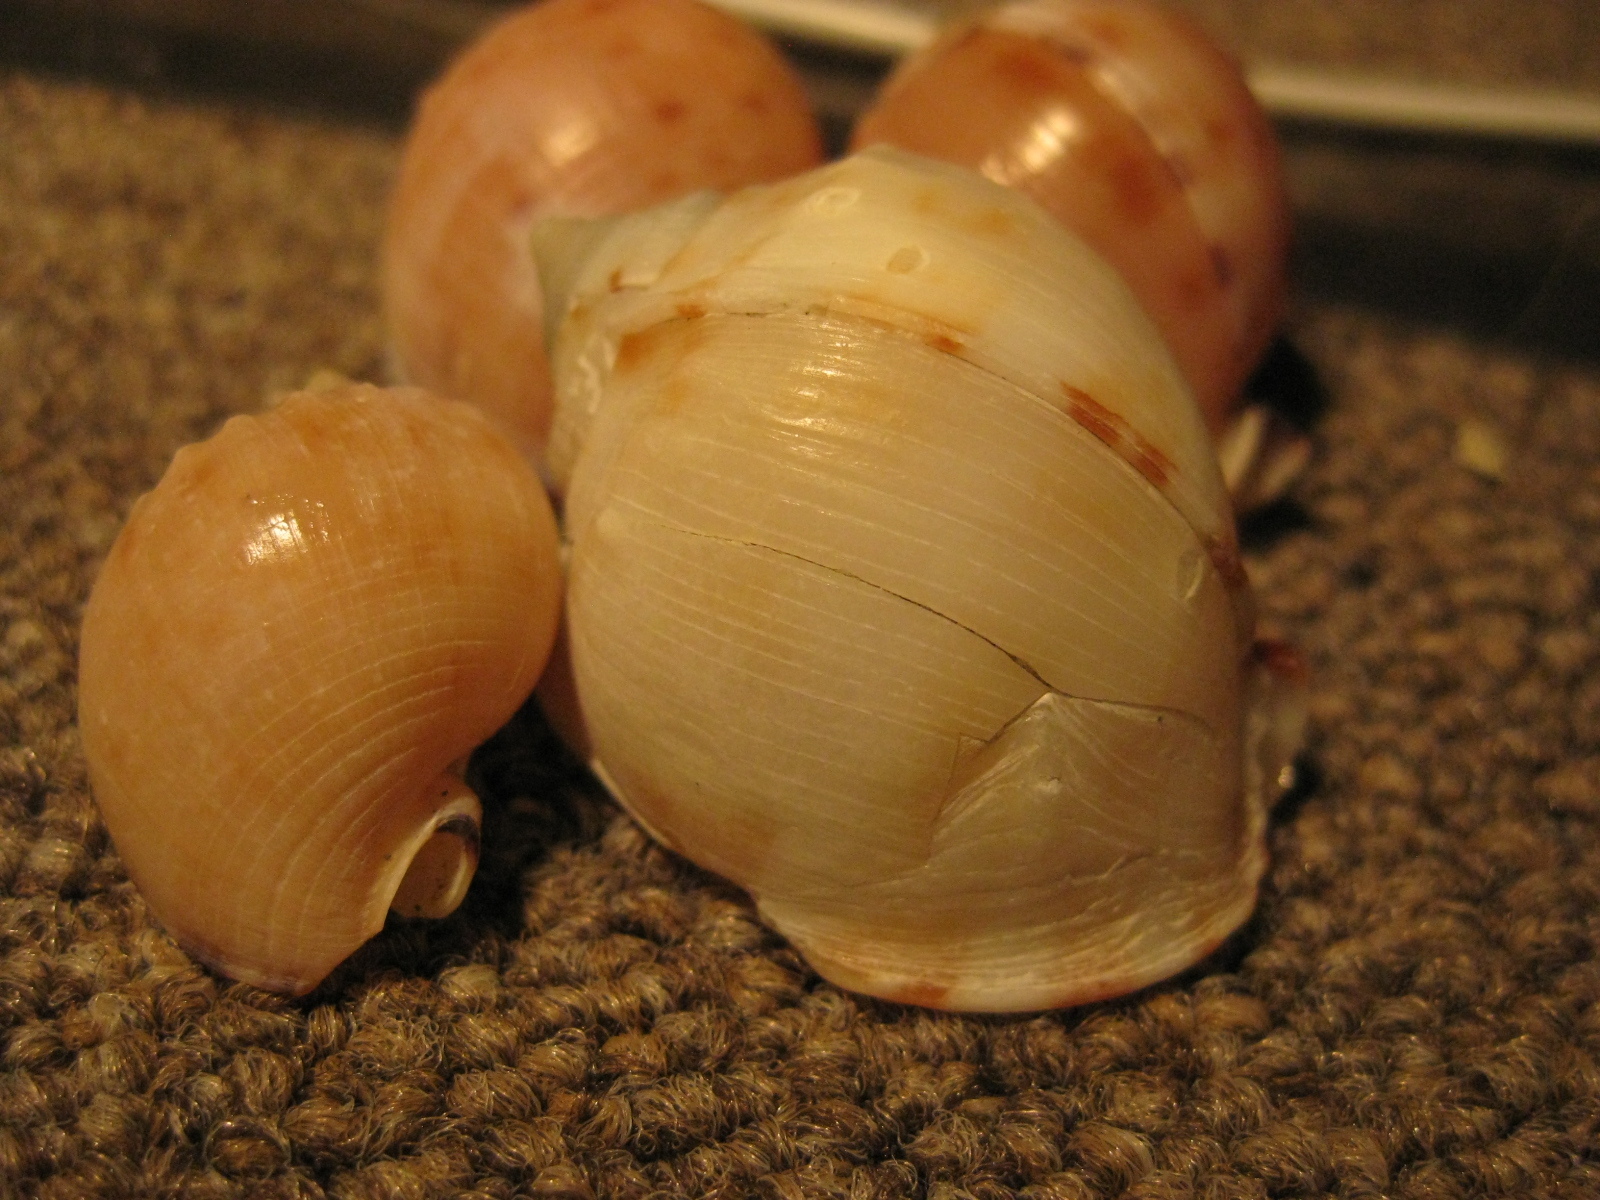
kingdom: Animalia
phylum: Mollusca
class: Gastropoda
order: Littorinimorpha
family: Cassidae
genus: Semicassis
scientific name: Semicassis pyrum
